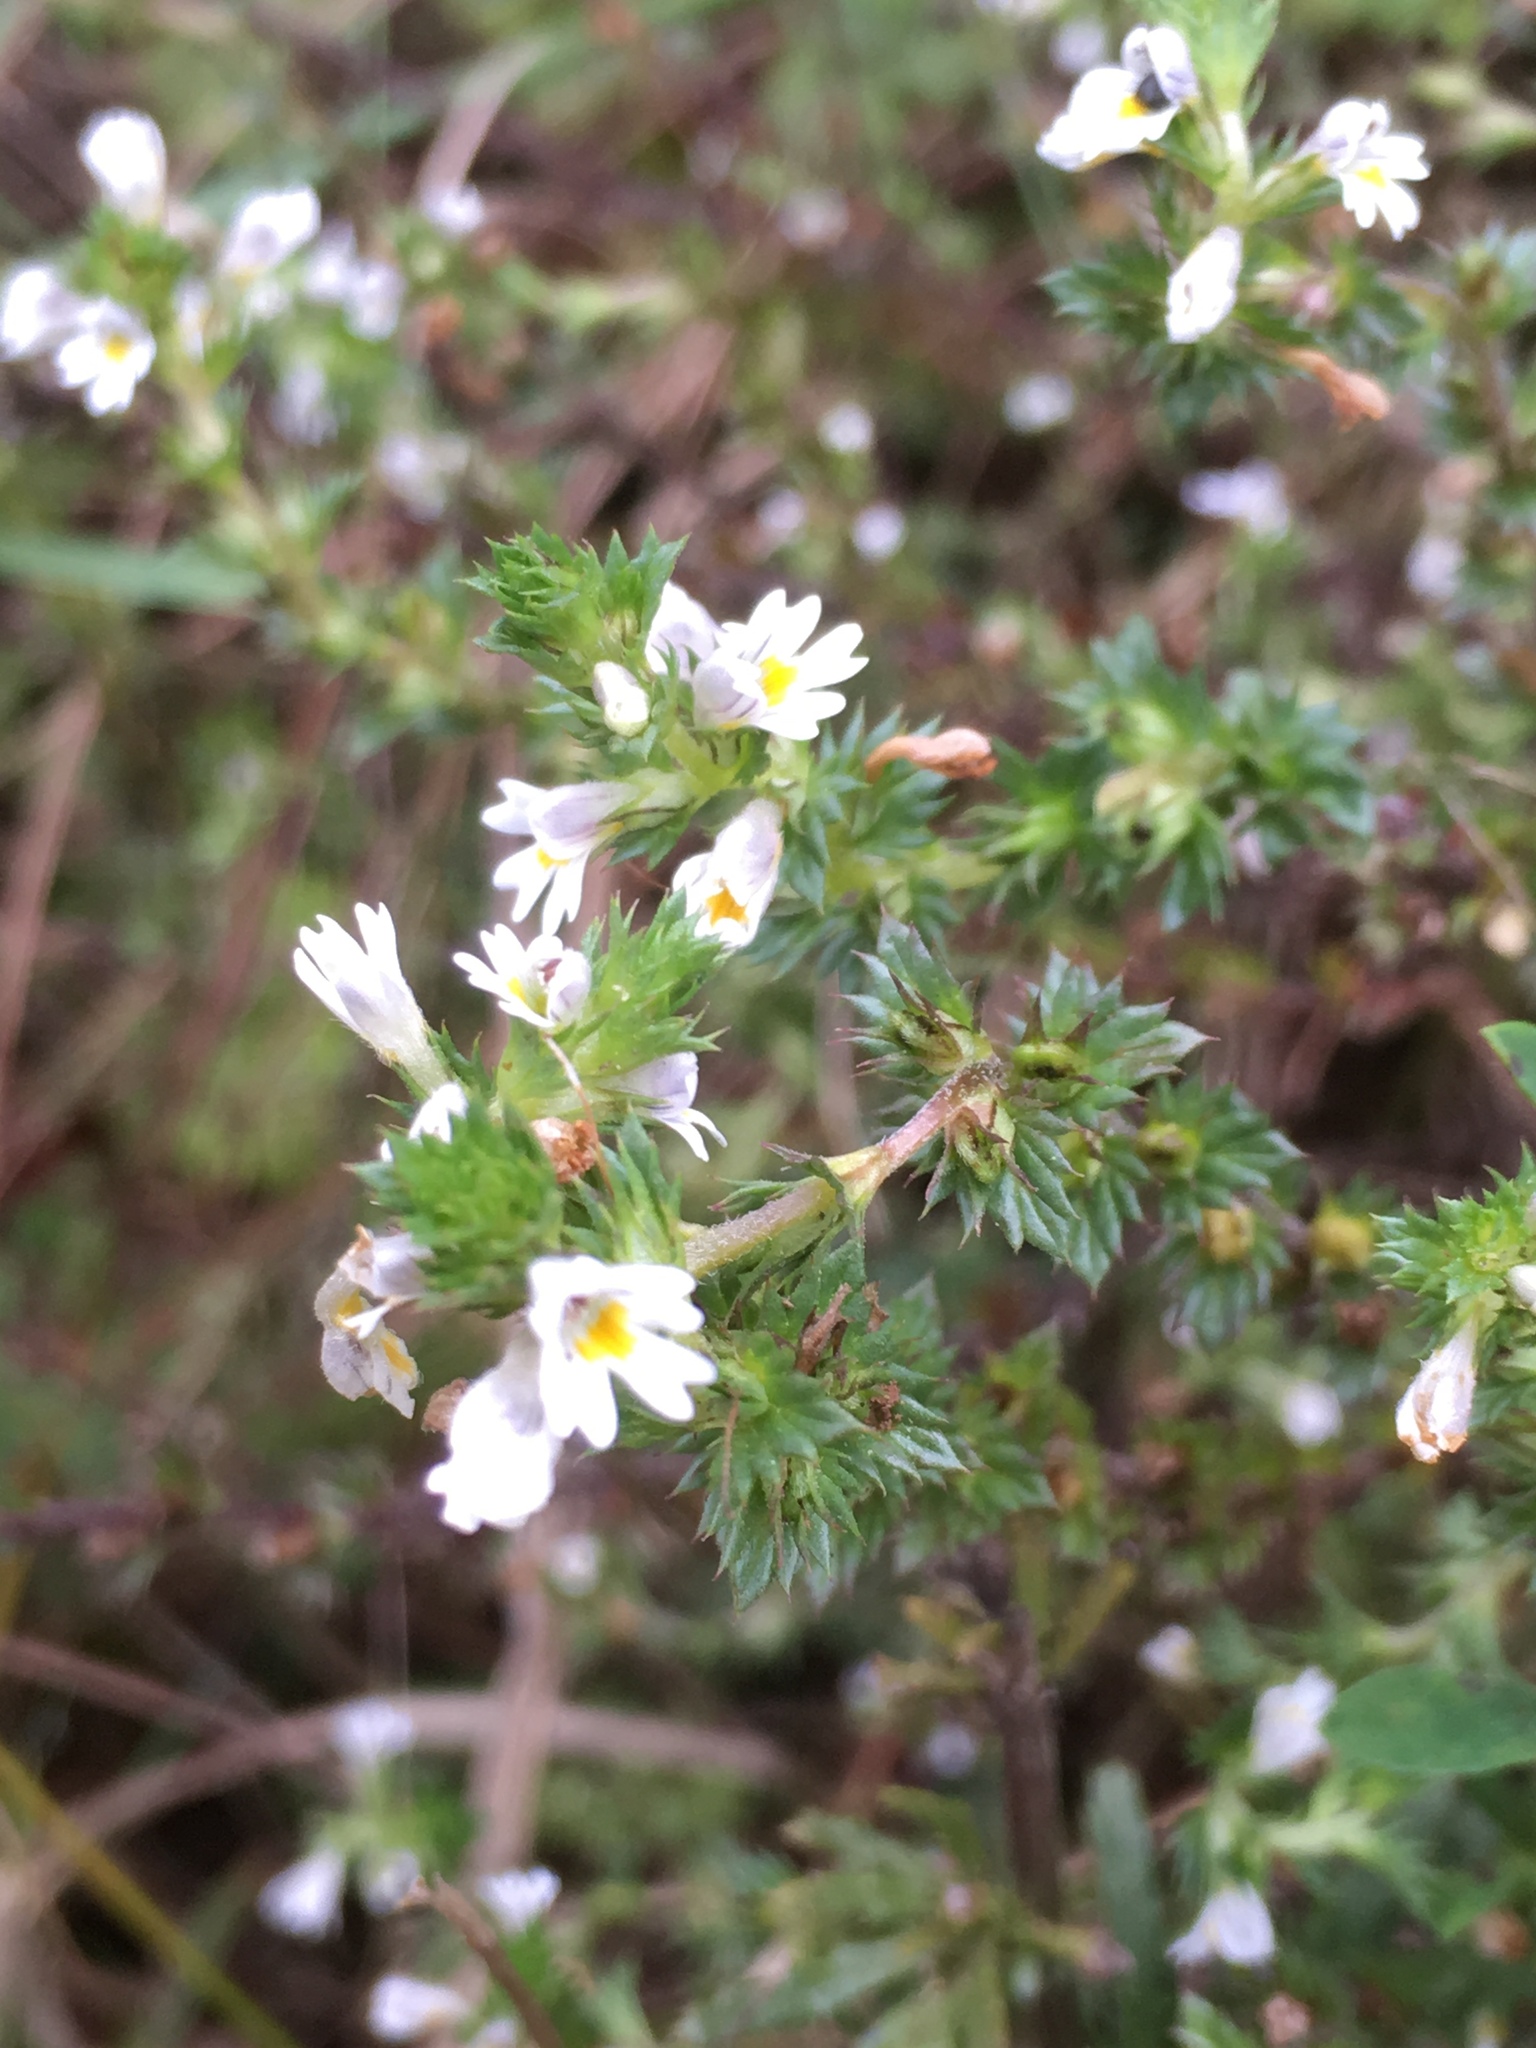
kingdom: Plantae
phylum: Tracheophyta
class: Magnoliopsida
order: Lamiales
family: Orobanchaceae
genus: Euphrasia
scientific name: Euphrasia nemorosa
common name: Common eyebright
